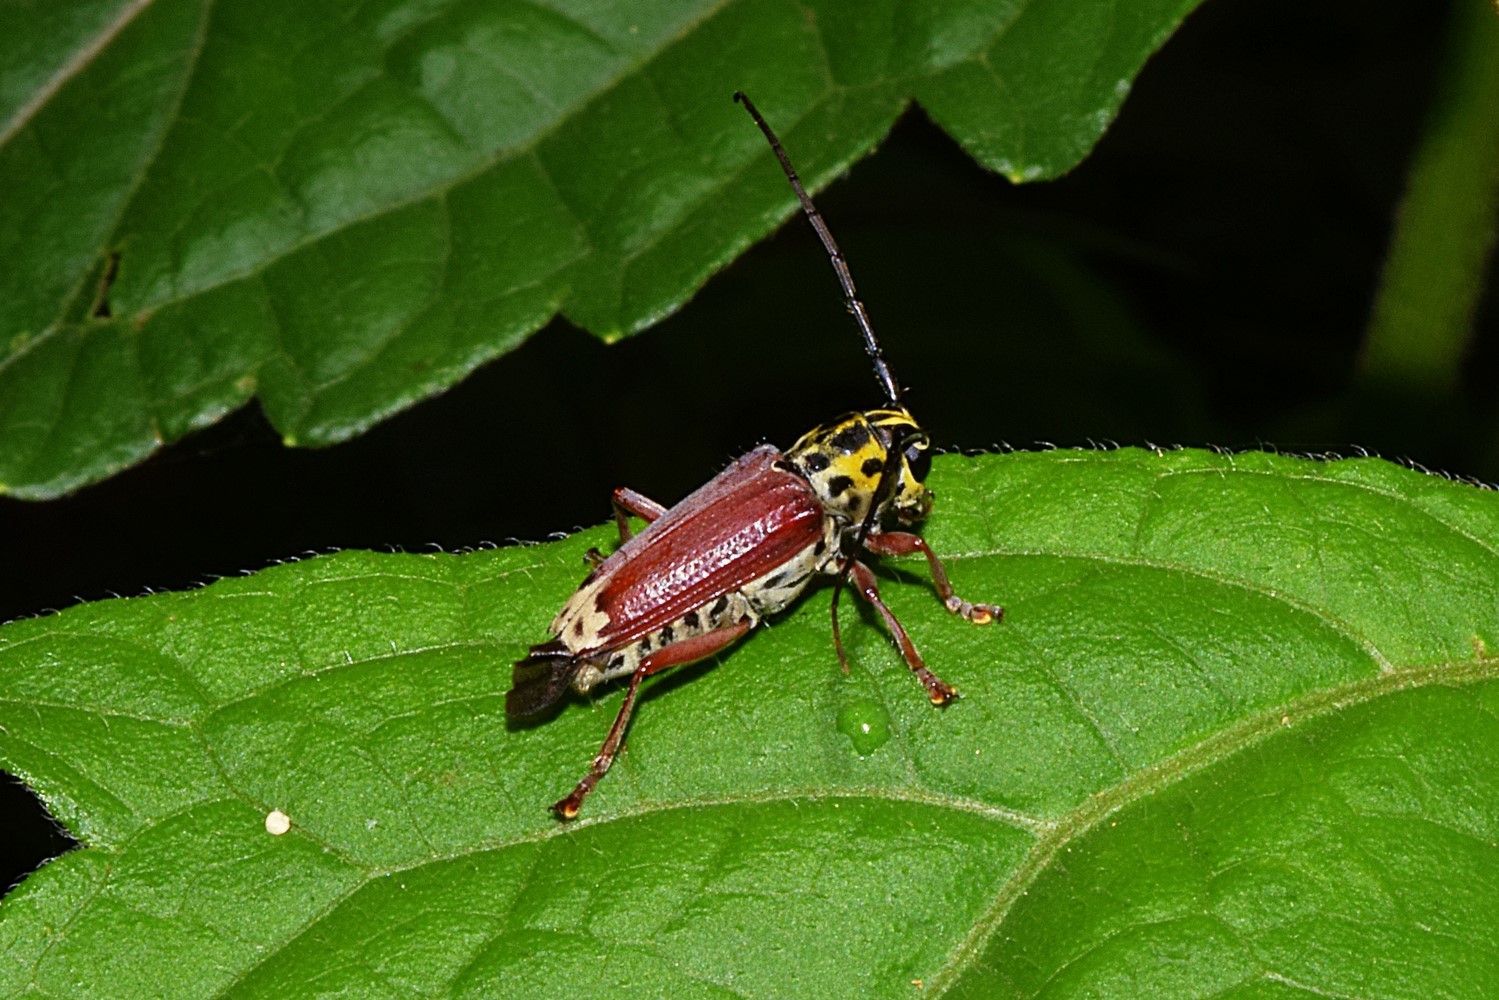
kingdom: Animalia
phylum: Arthropoda
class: Insecta
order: Coleoptera
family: Cerambycidae
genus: Glenea
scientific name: Glenea spilota
